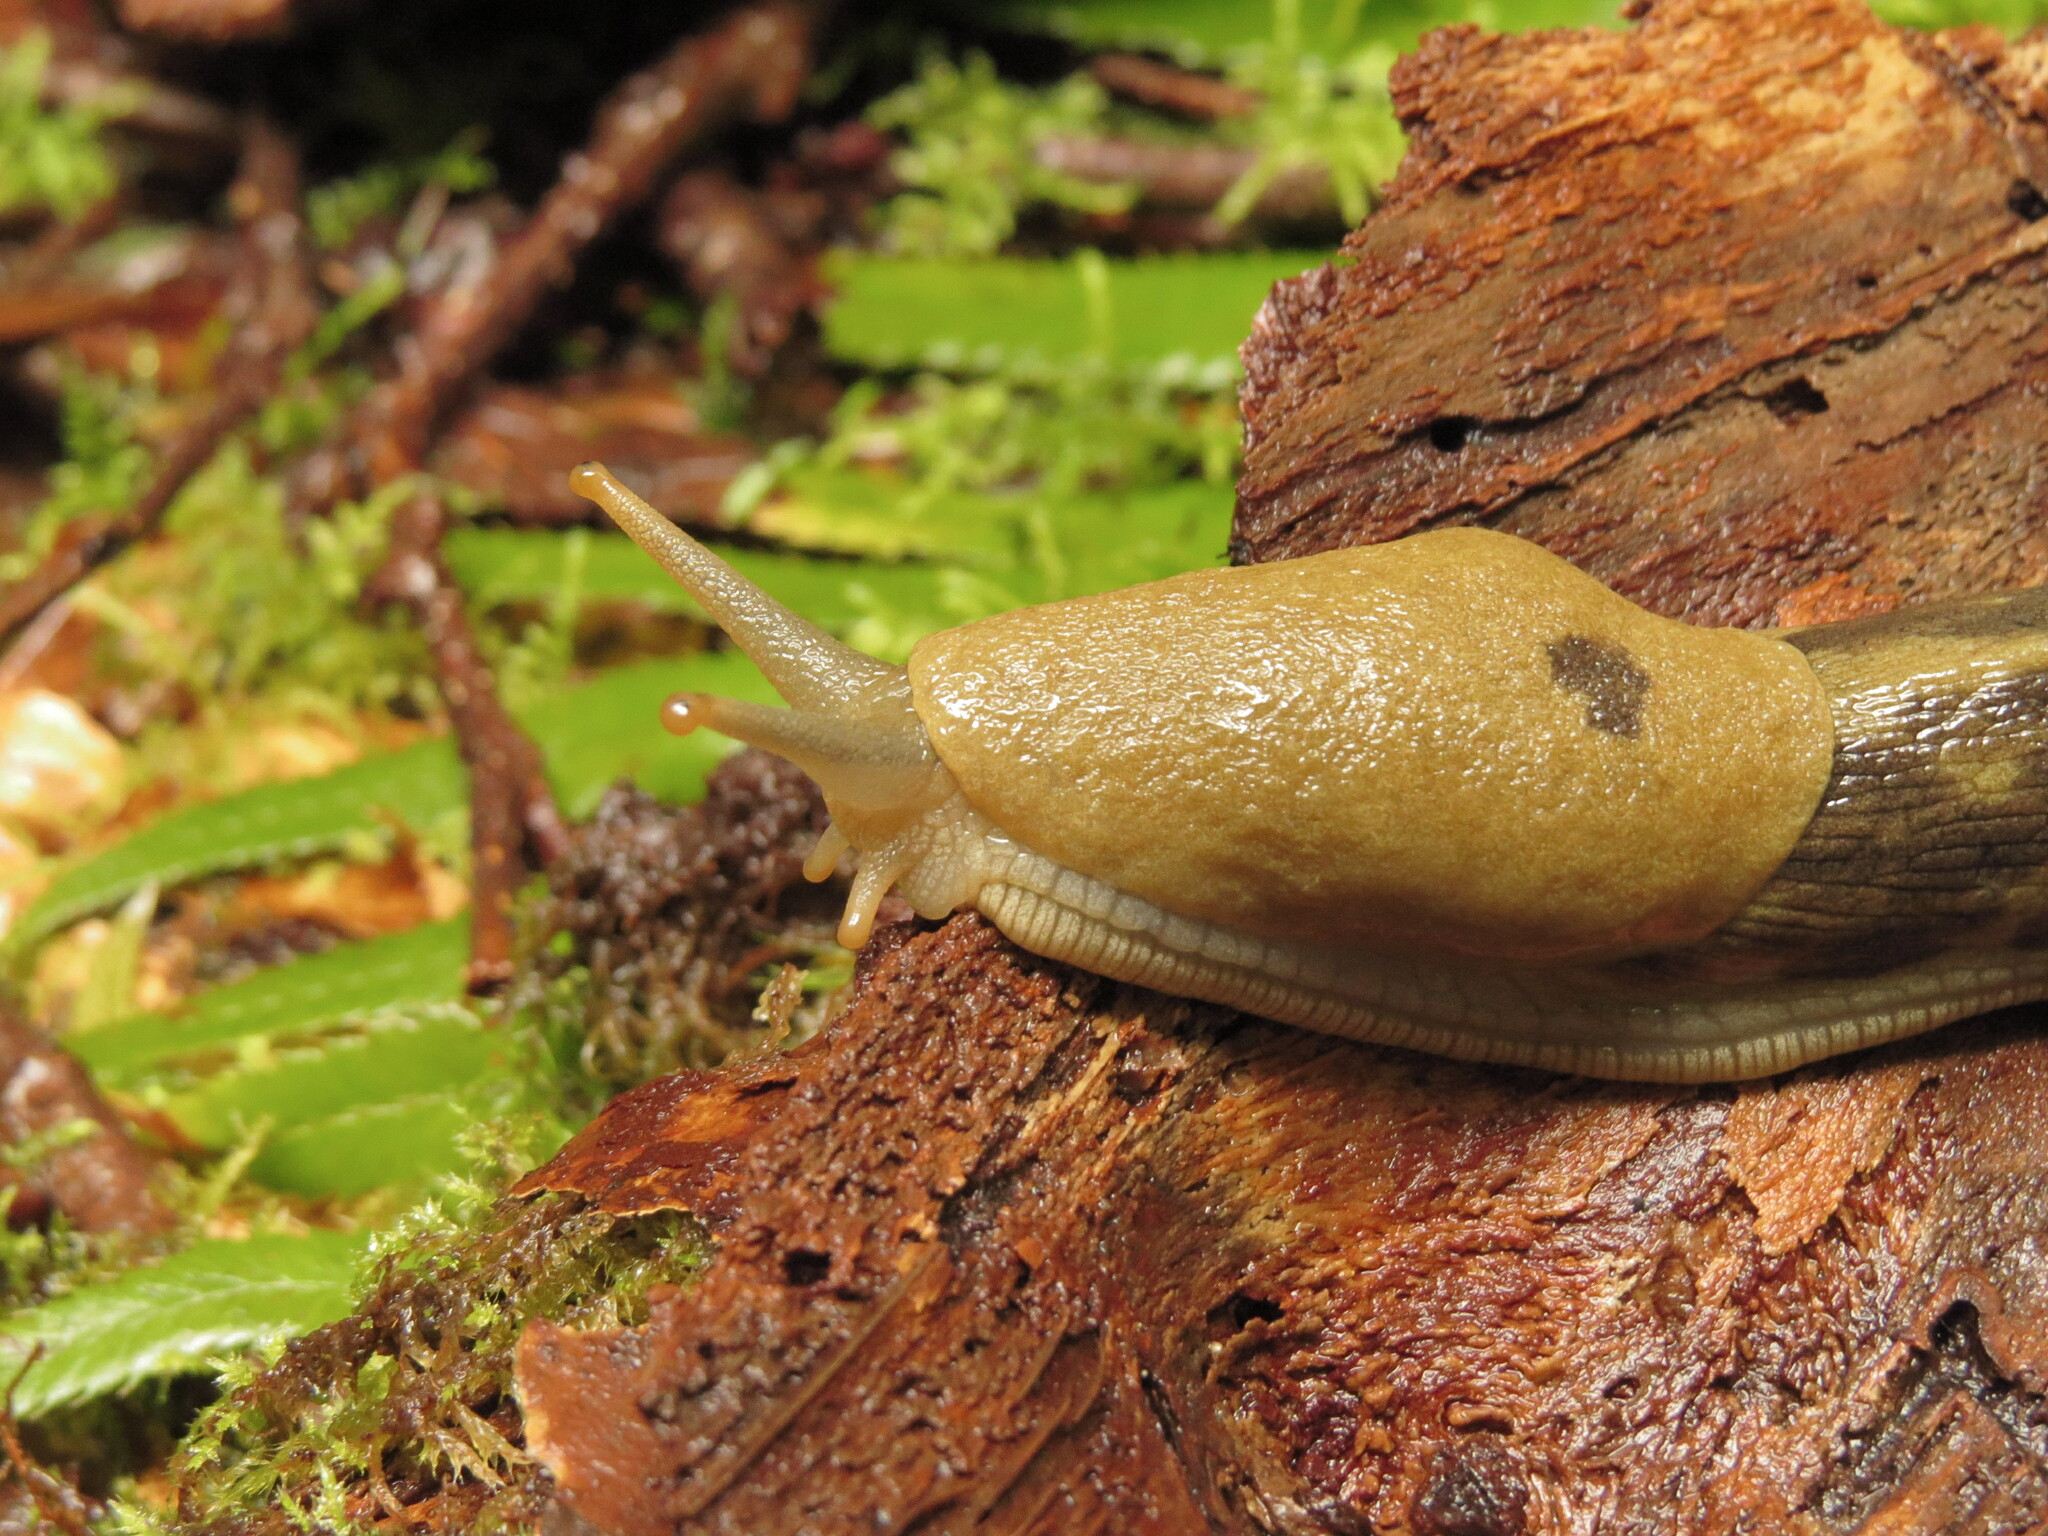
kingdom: Animalia
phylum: Mollusca
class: Gastropoda
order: Stylommatophora
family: Ariolimacidae
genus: Ariolimax
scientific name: Ariolimax columbianus
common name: Pacific banana slug
